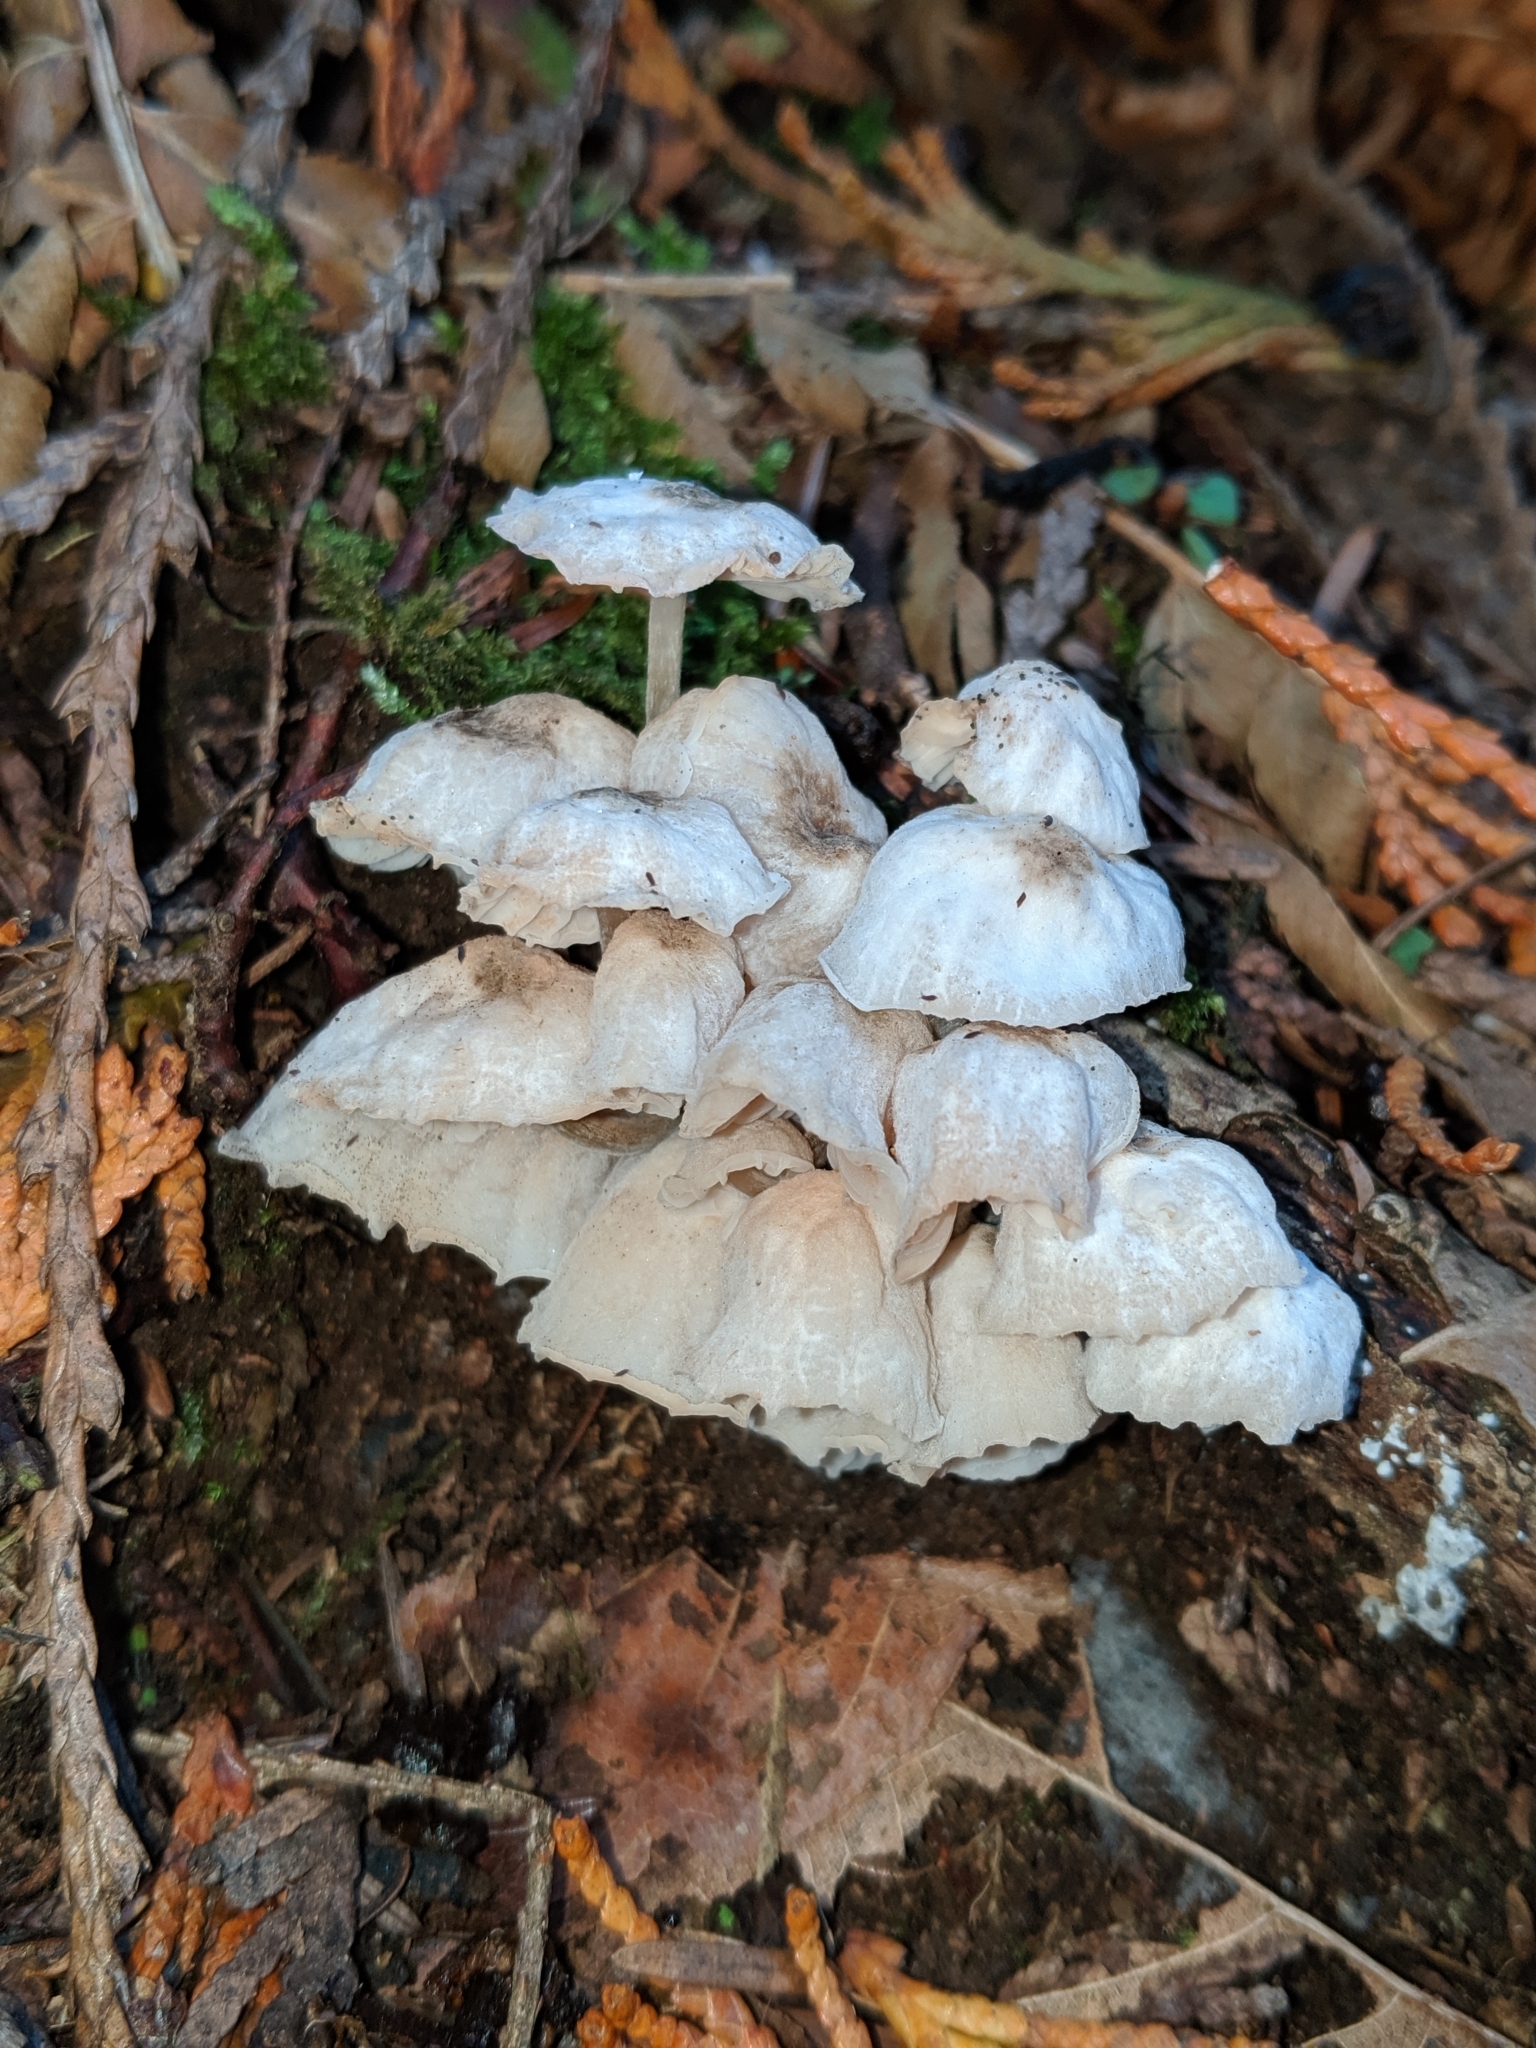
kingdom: Fungi
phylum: Basidiomycota
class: Agaricomycetes
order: Agaricales
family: Omphalotaceae
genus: Marasmiellus
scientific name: Marasmiellus candidus
